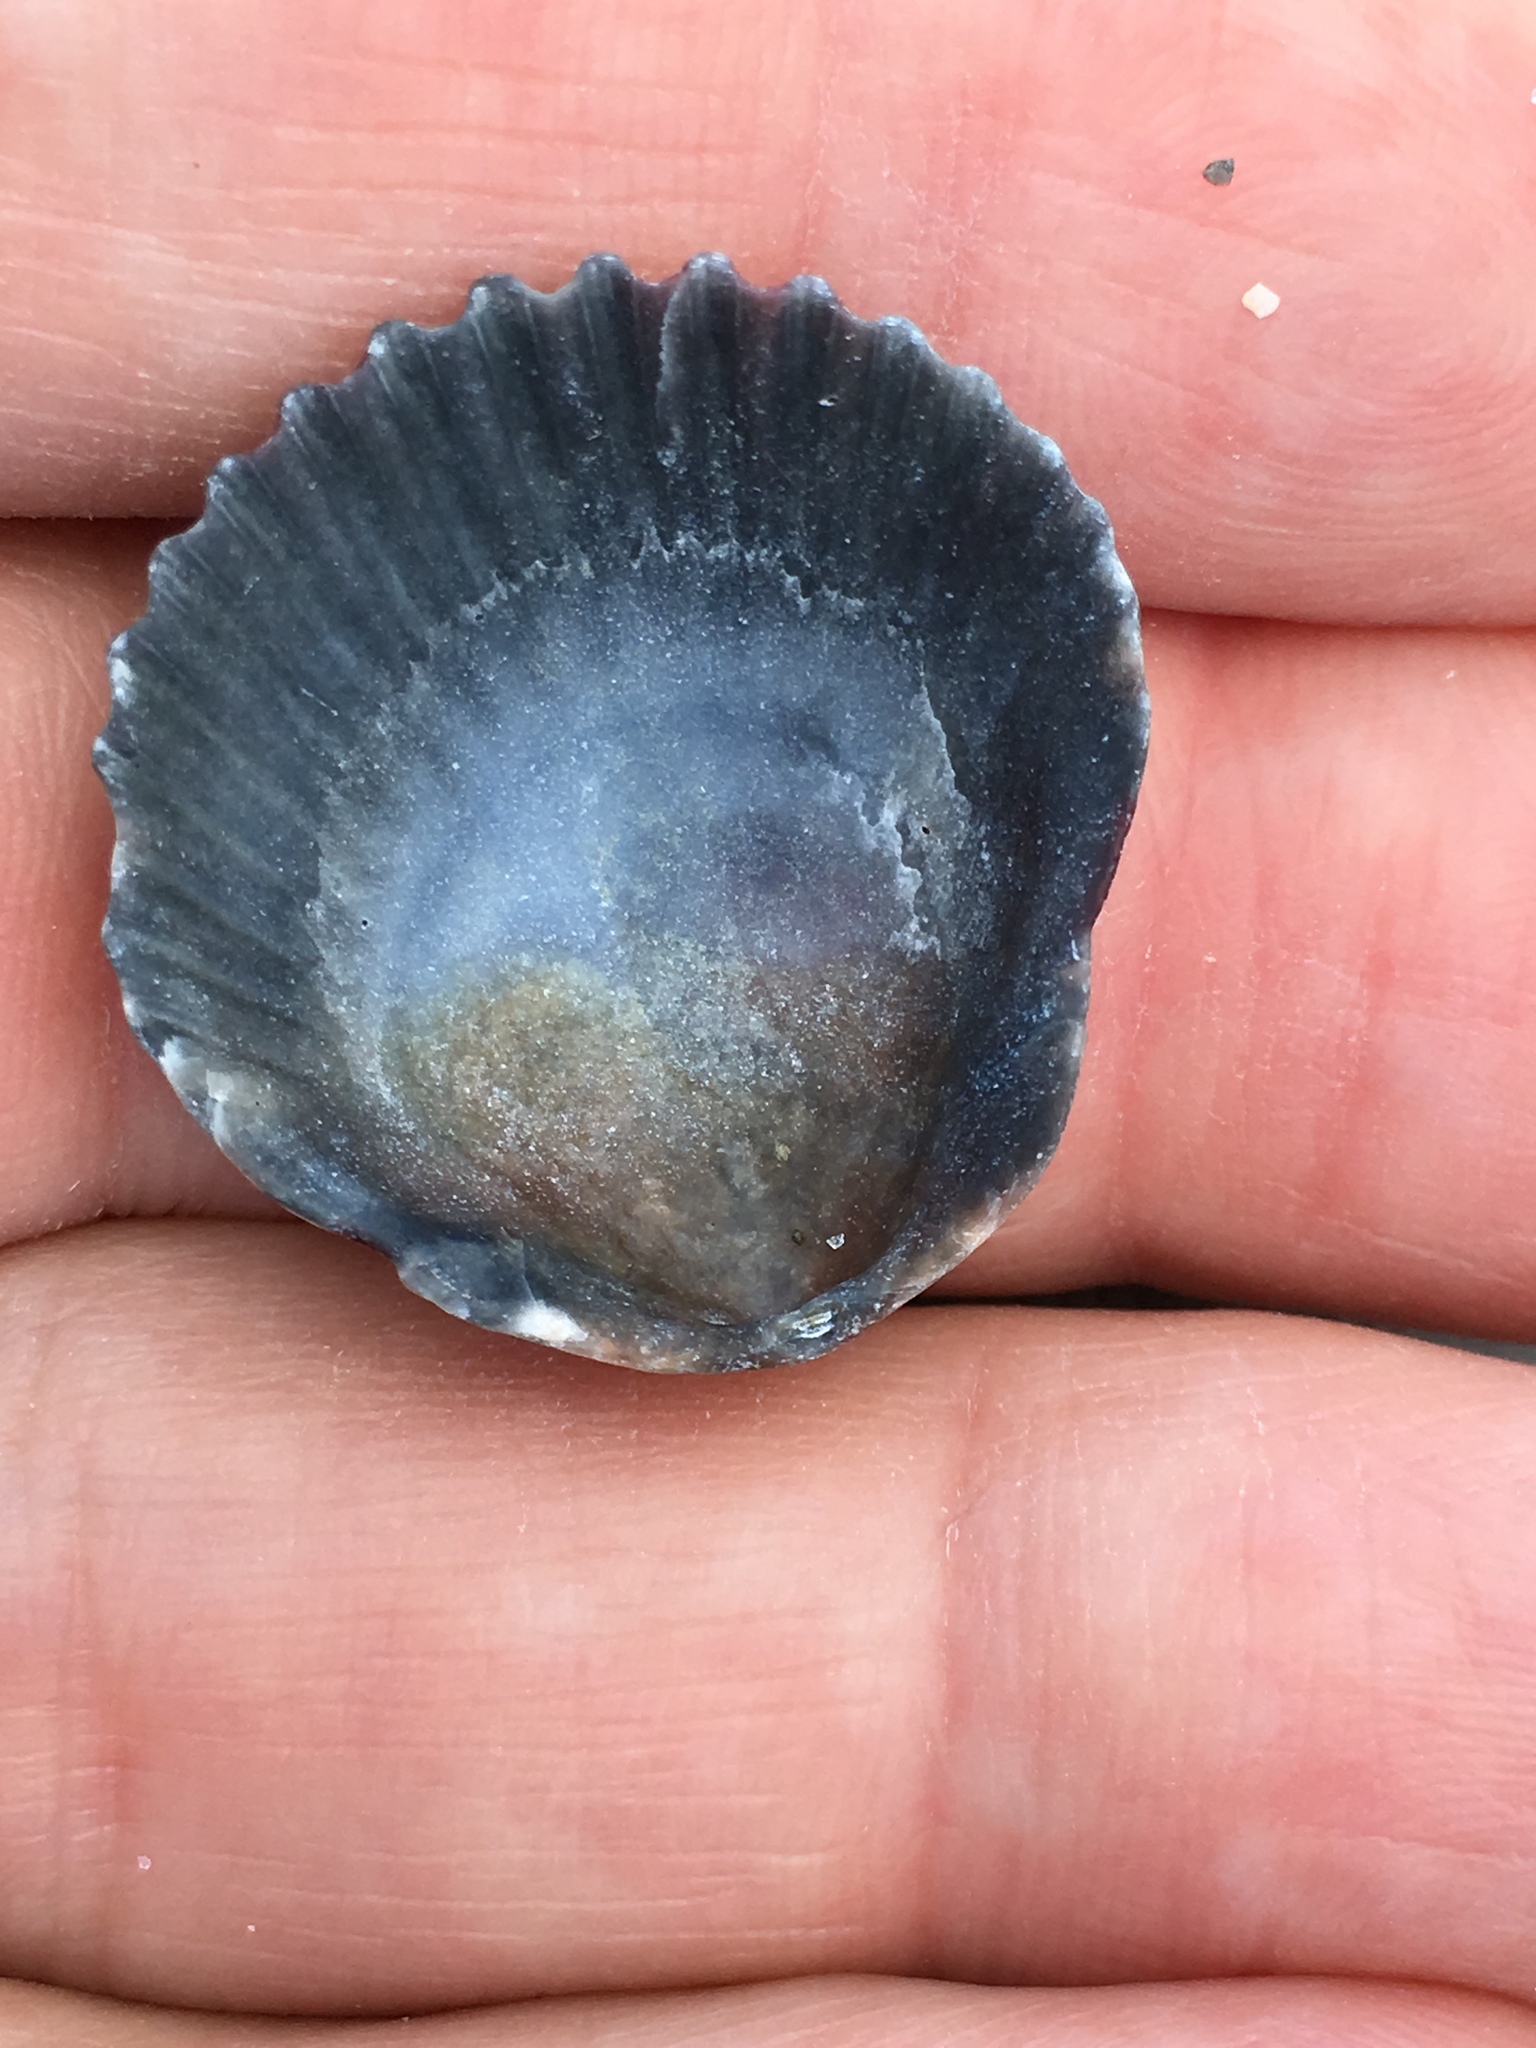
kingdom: Animalia
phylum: Mollusca
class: Bivalvia
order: Pectinida
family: Pectinidae
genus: Argopecten
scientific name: Argopecten gibbus
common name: Atlantic calico scallop
